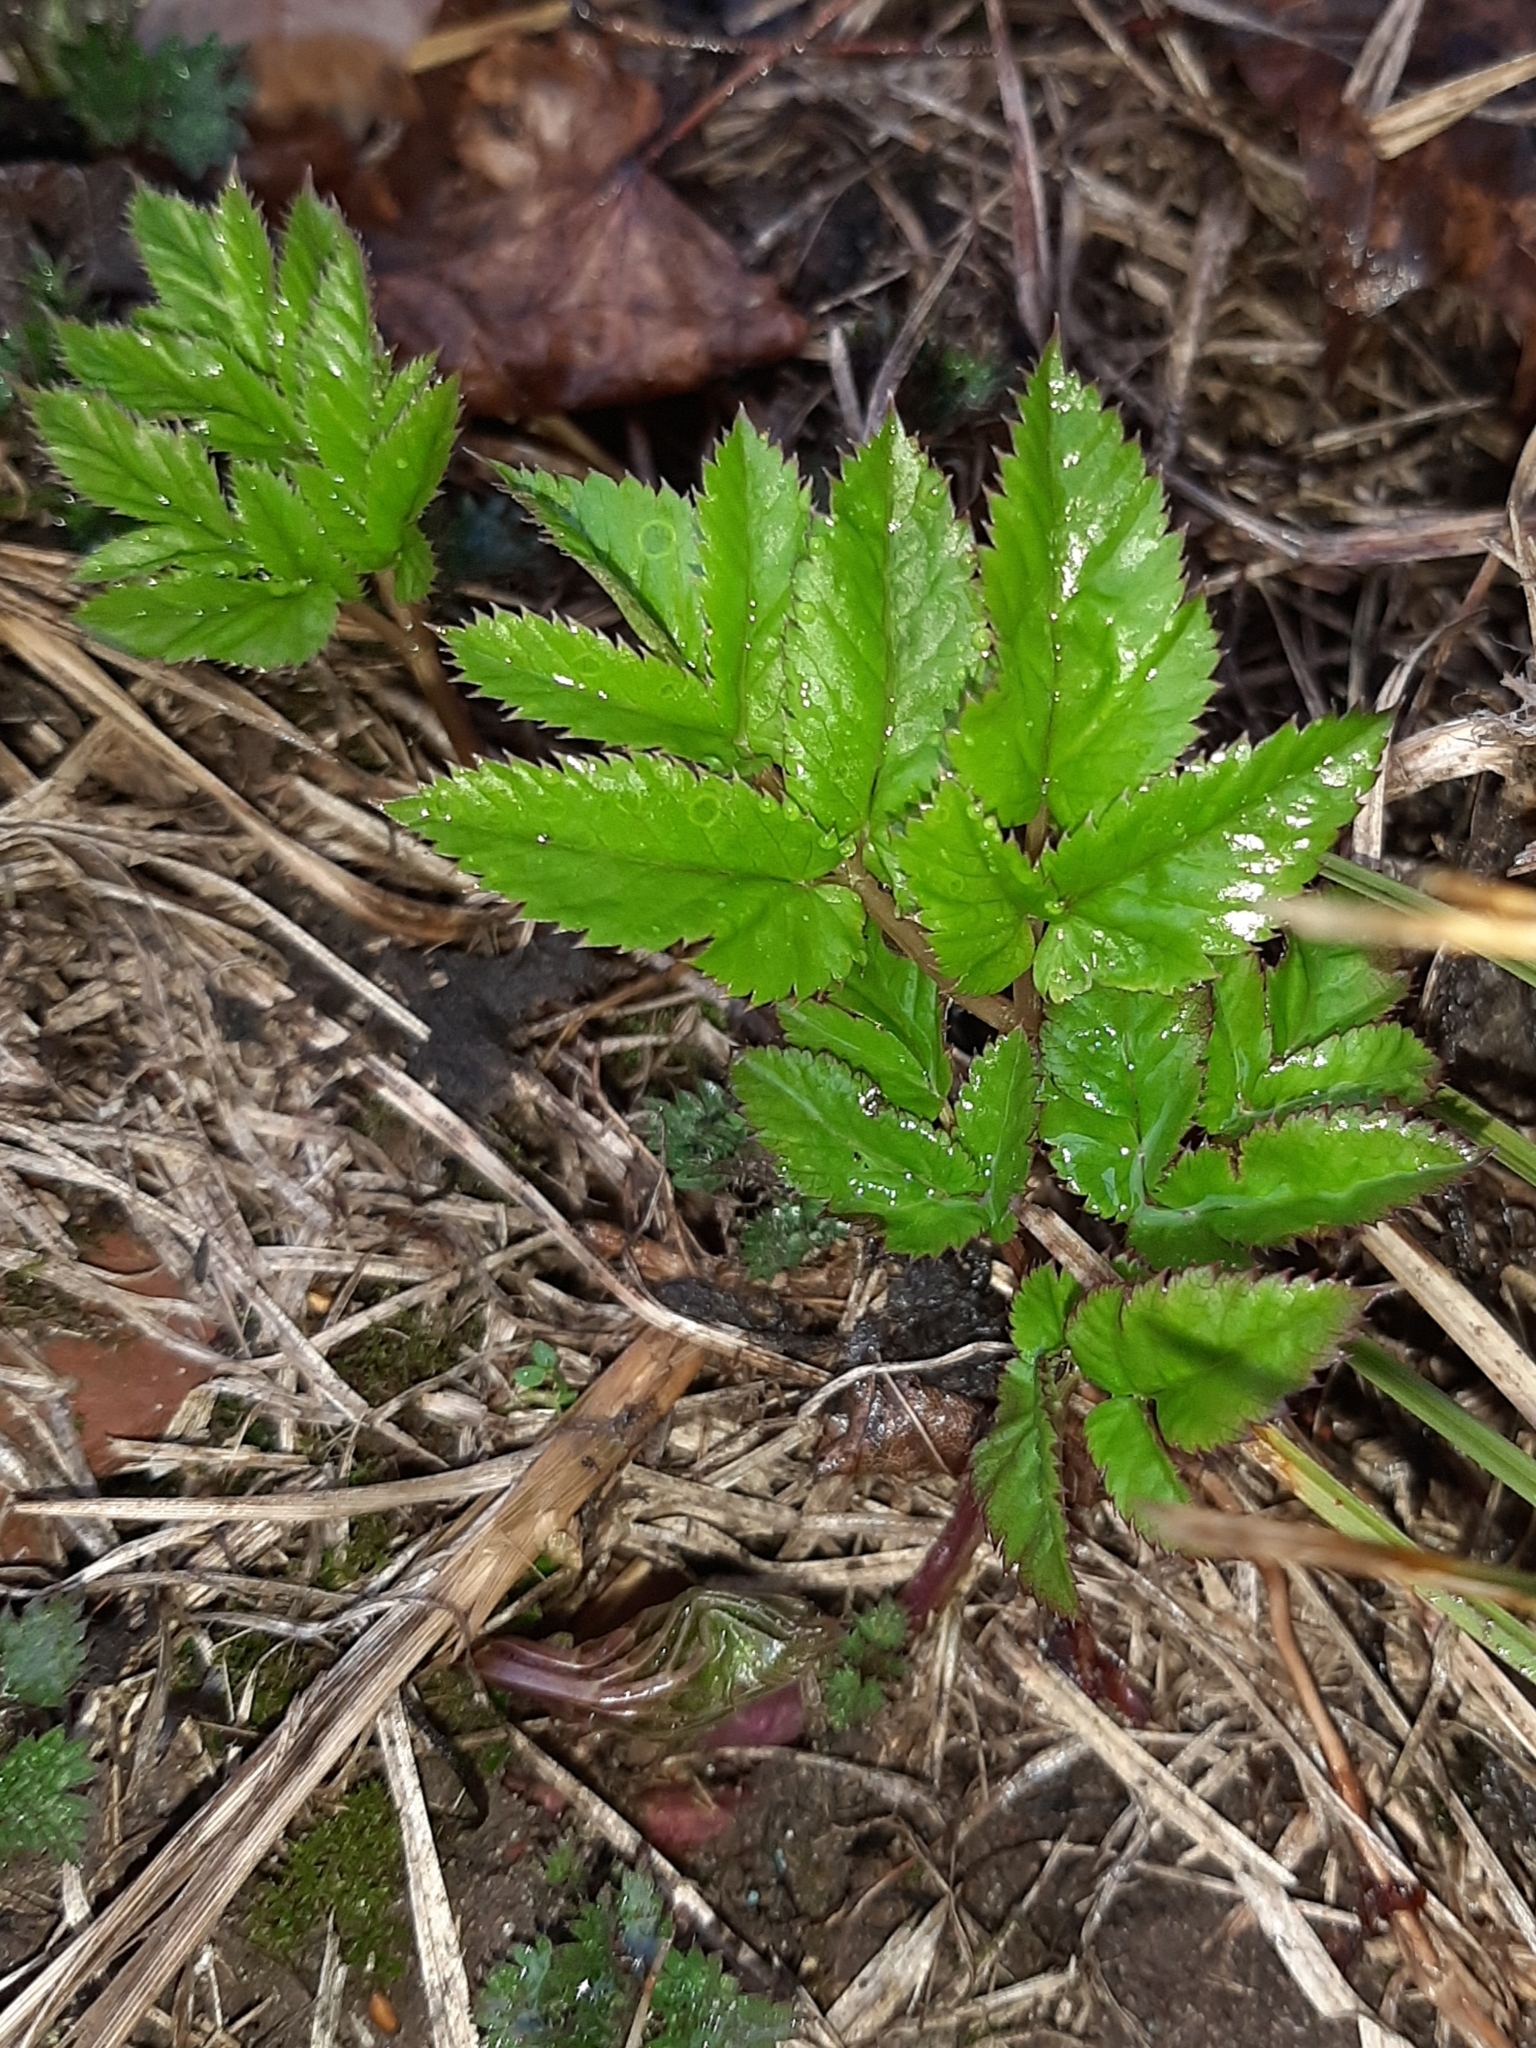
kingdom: Plantae
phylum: Tracheophyta
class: Magnoliopsida
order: Apiales
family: Apiaceae
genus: Aegopodium
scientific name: Aegopodium podagraria
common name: Ground-elder
